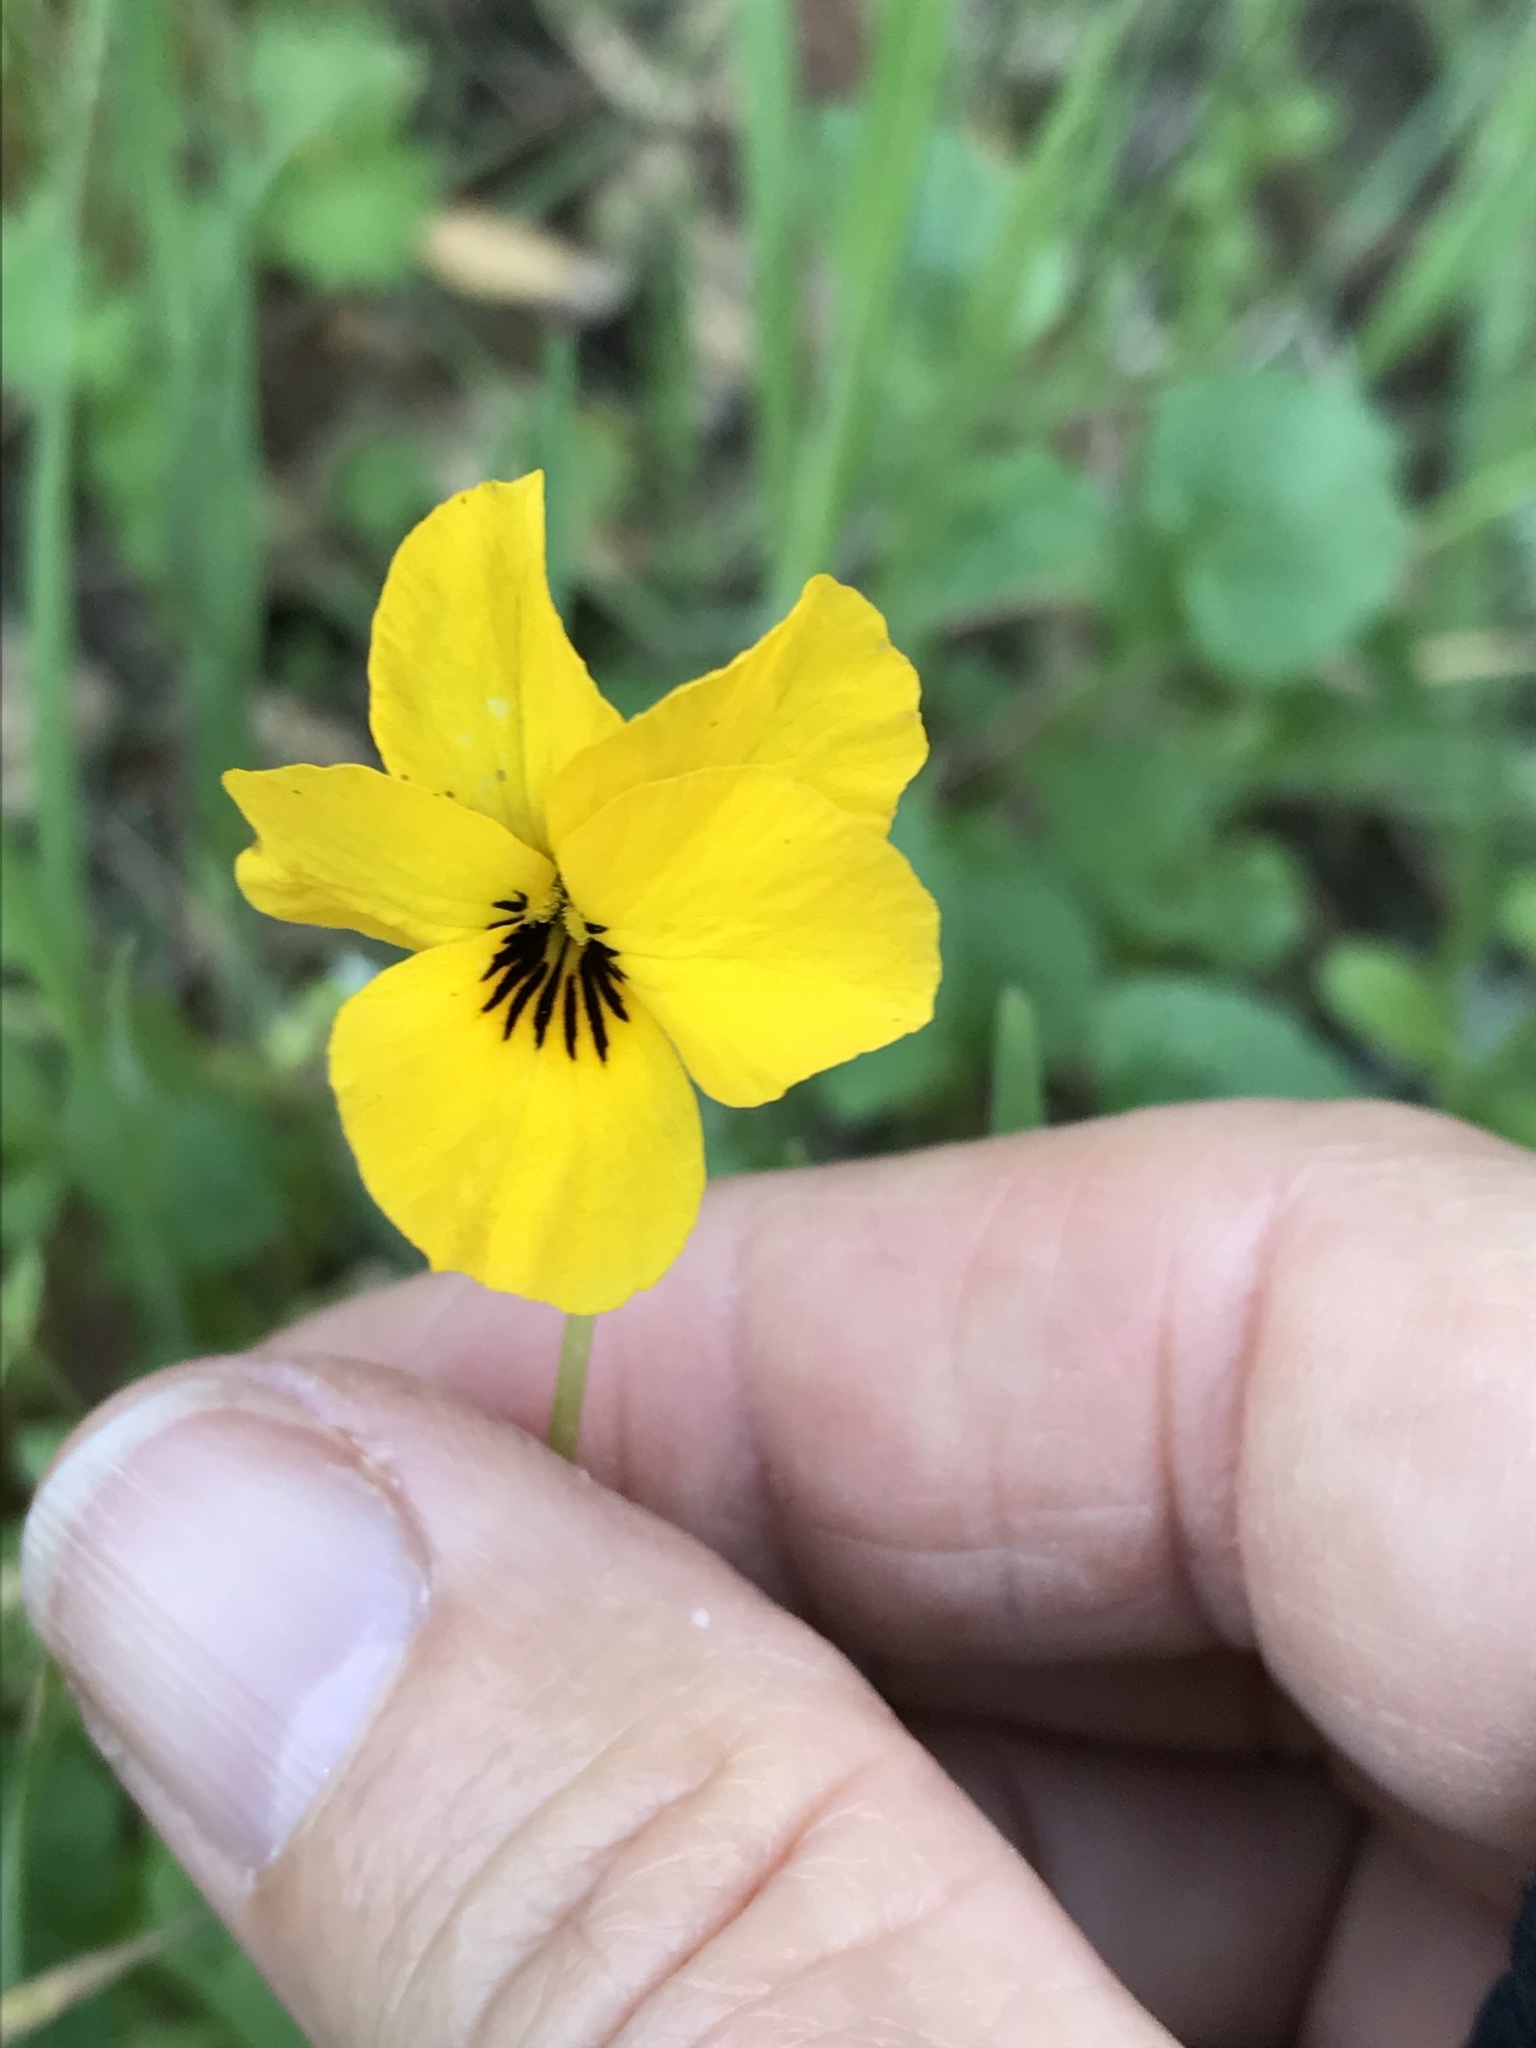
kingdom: Plantae
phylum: Tracheophyta
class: Magnoliopsida
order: Malpighiales
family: Violaceae
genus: Viola
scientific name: Viola pedunculata
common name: California golden violet
